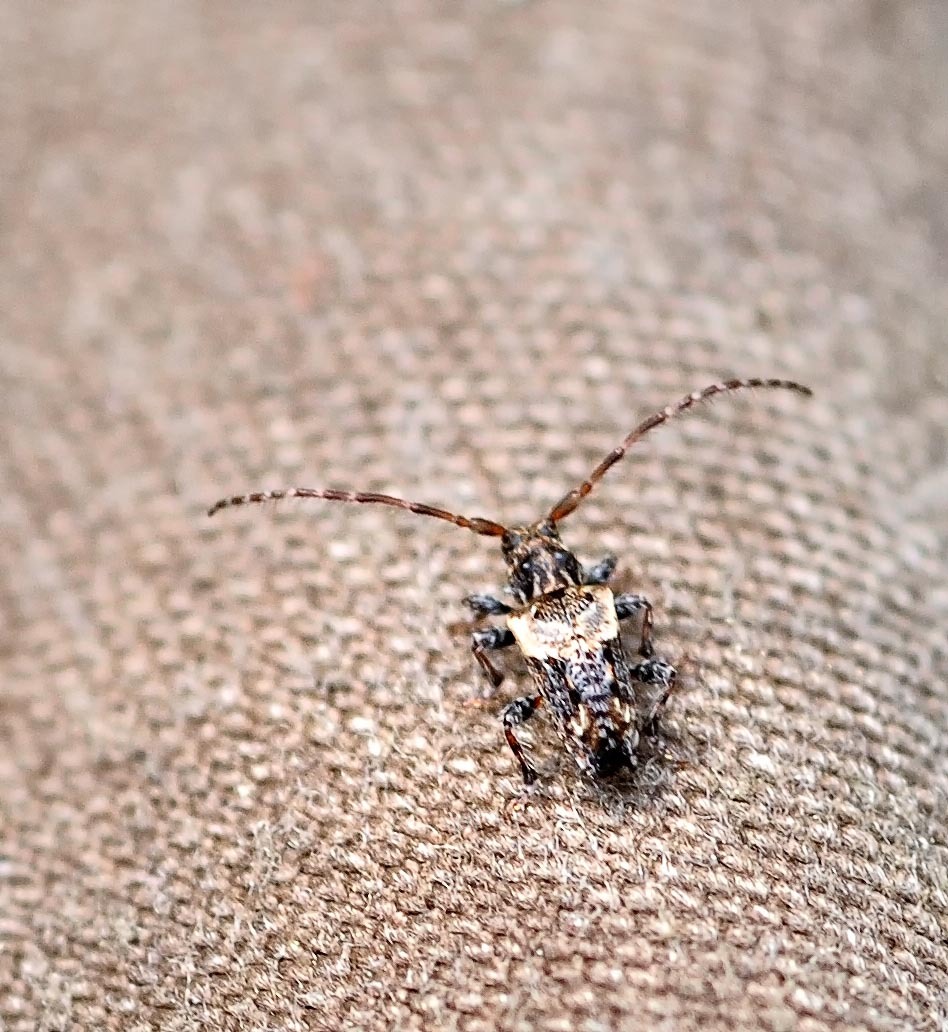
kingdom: Animalia
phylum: Arthropoda
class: Insecta
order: Coleoptera
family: Cerambycidae
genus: Pogonocherus
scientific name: Pogonocherus hispidus
